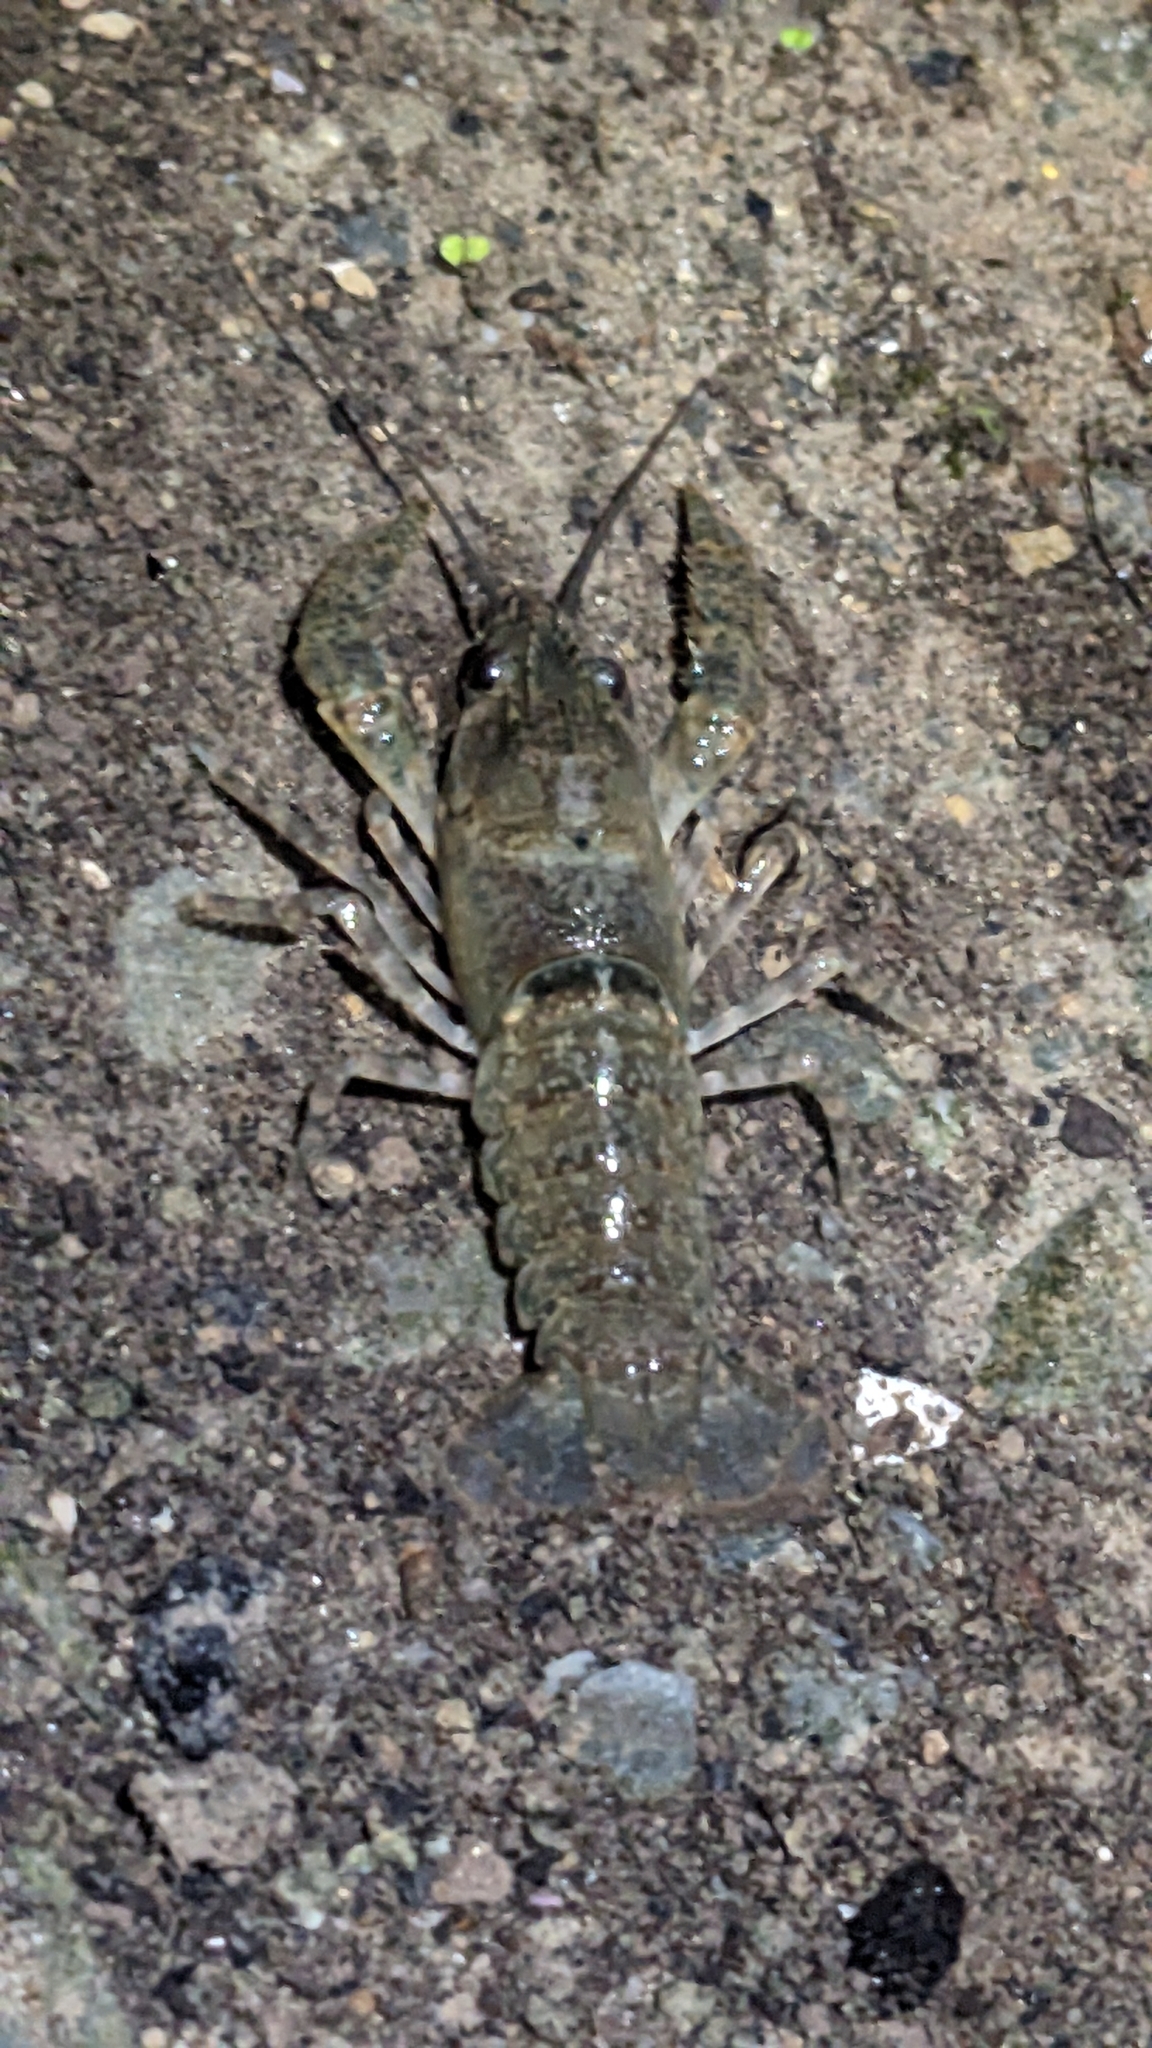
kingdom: Animalia
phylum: Arthropoda
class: Malacostraca
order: Decapoda
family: Parastacidae
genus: Paranephrops
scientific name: Paranephrops planifrons
